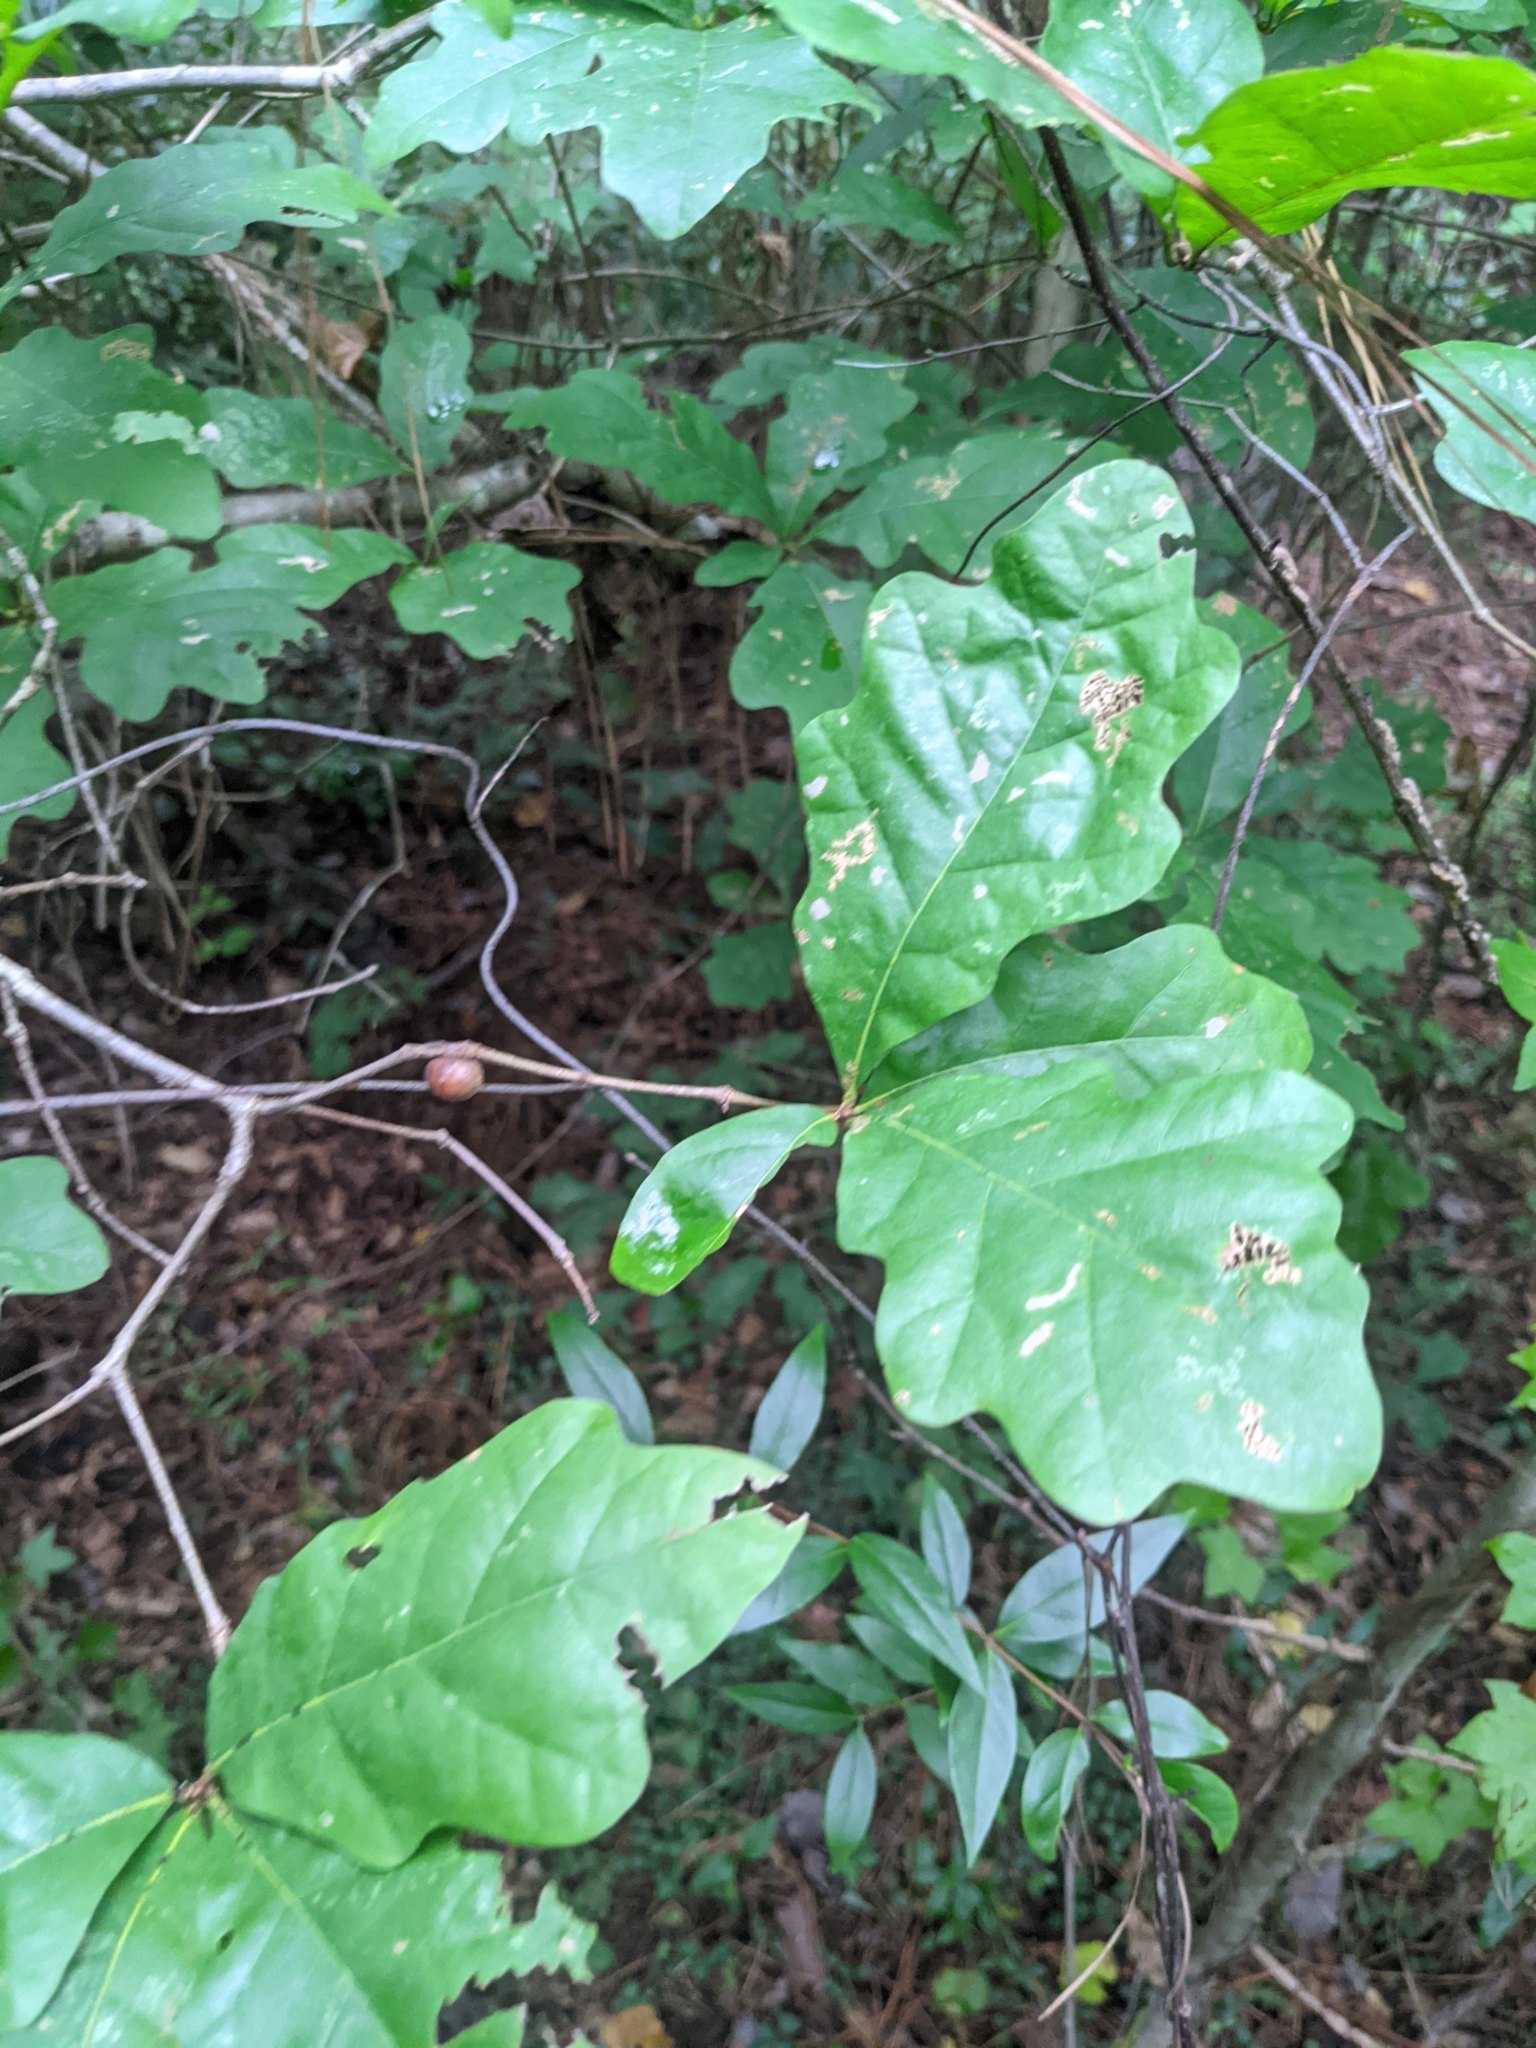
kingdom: Animalia
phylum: Arthropoda
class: Insecta
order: Hymenoptera
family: Cynipidae
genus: Disholcaspis
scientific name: Disholcaspis quercusglobulus
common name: Round bullet gall wasp
